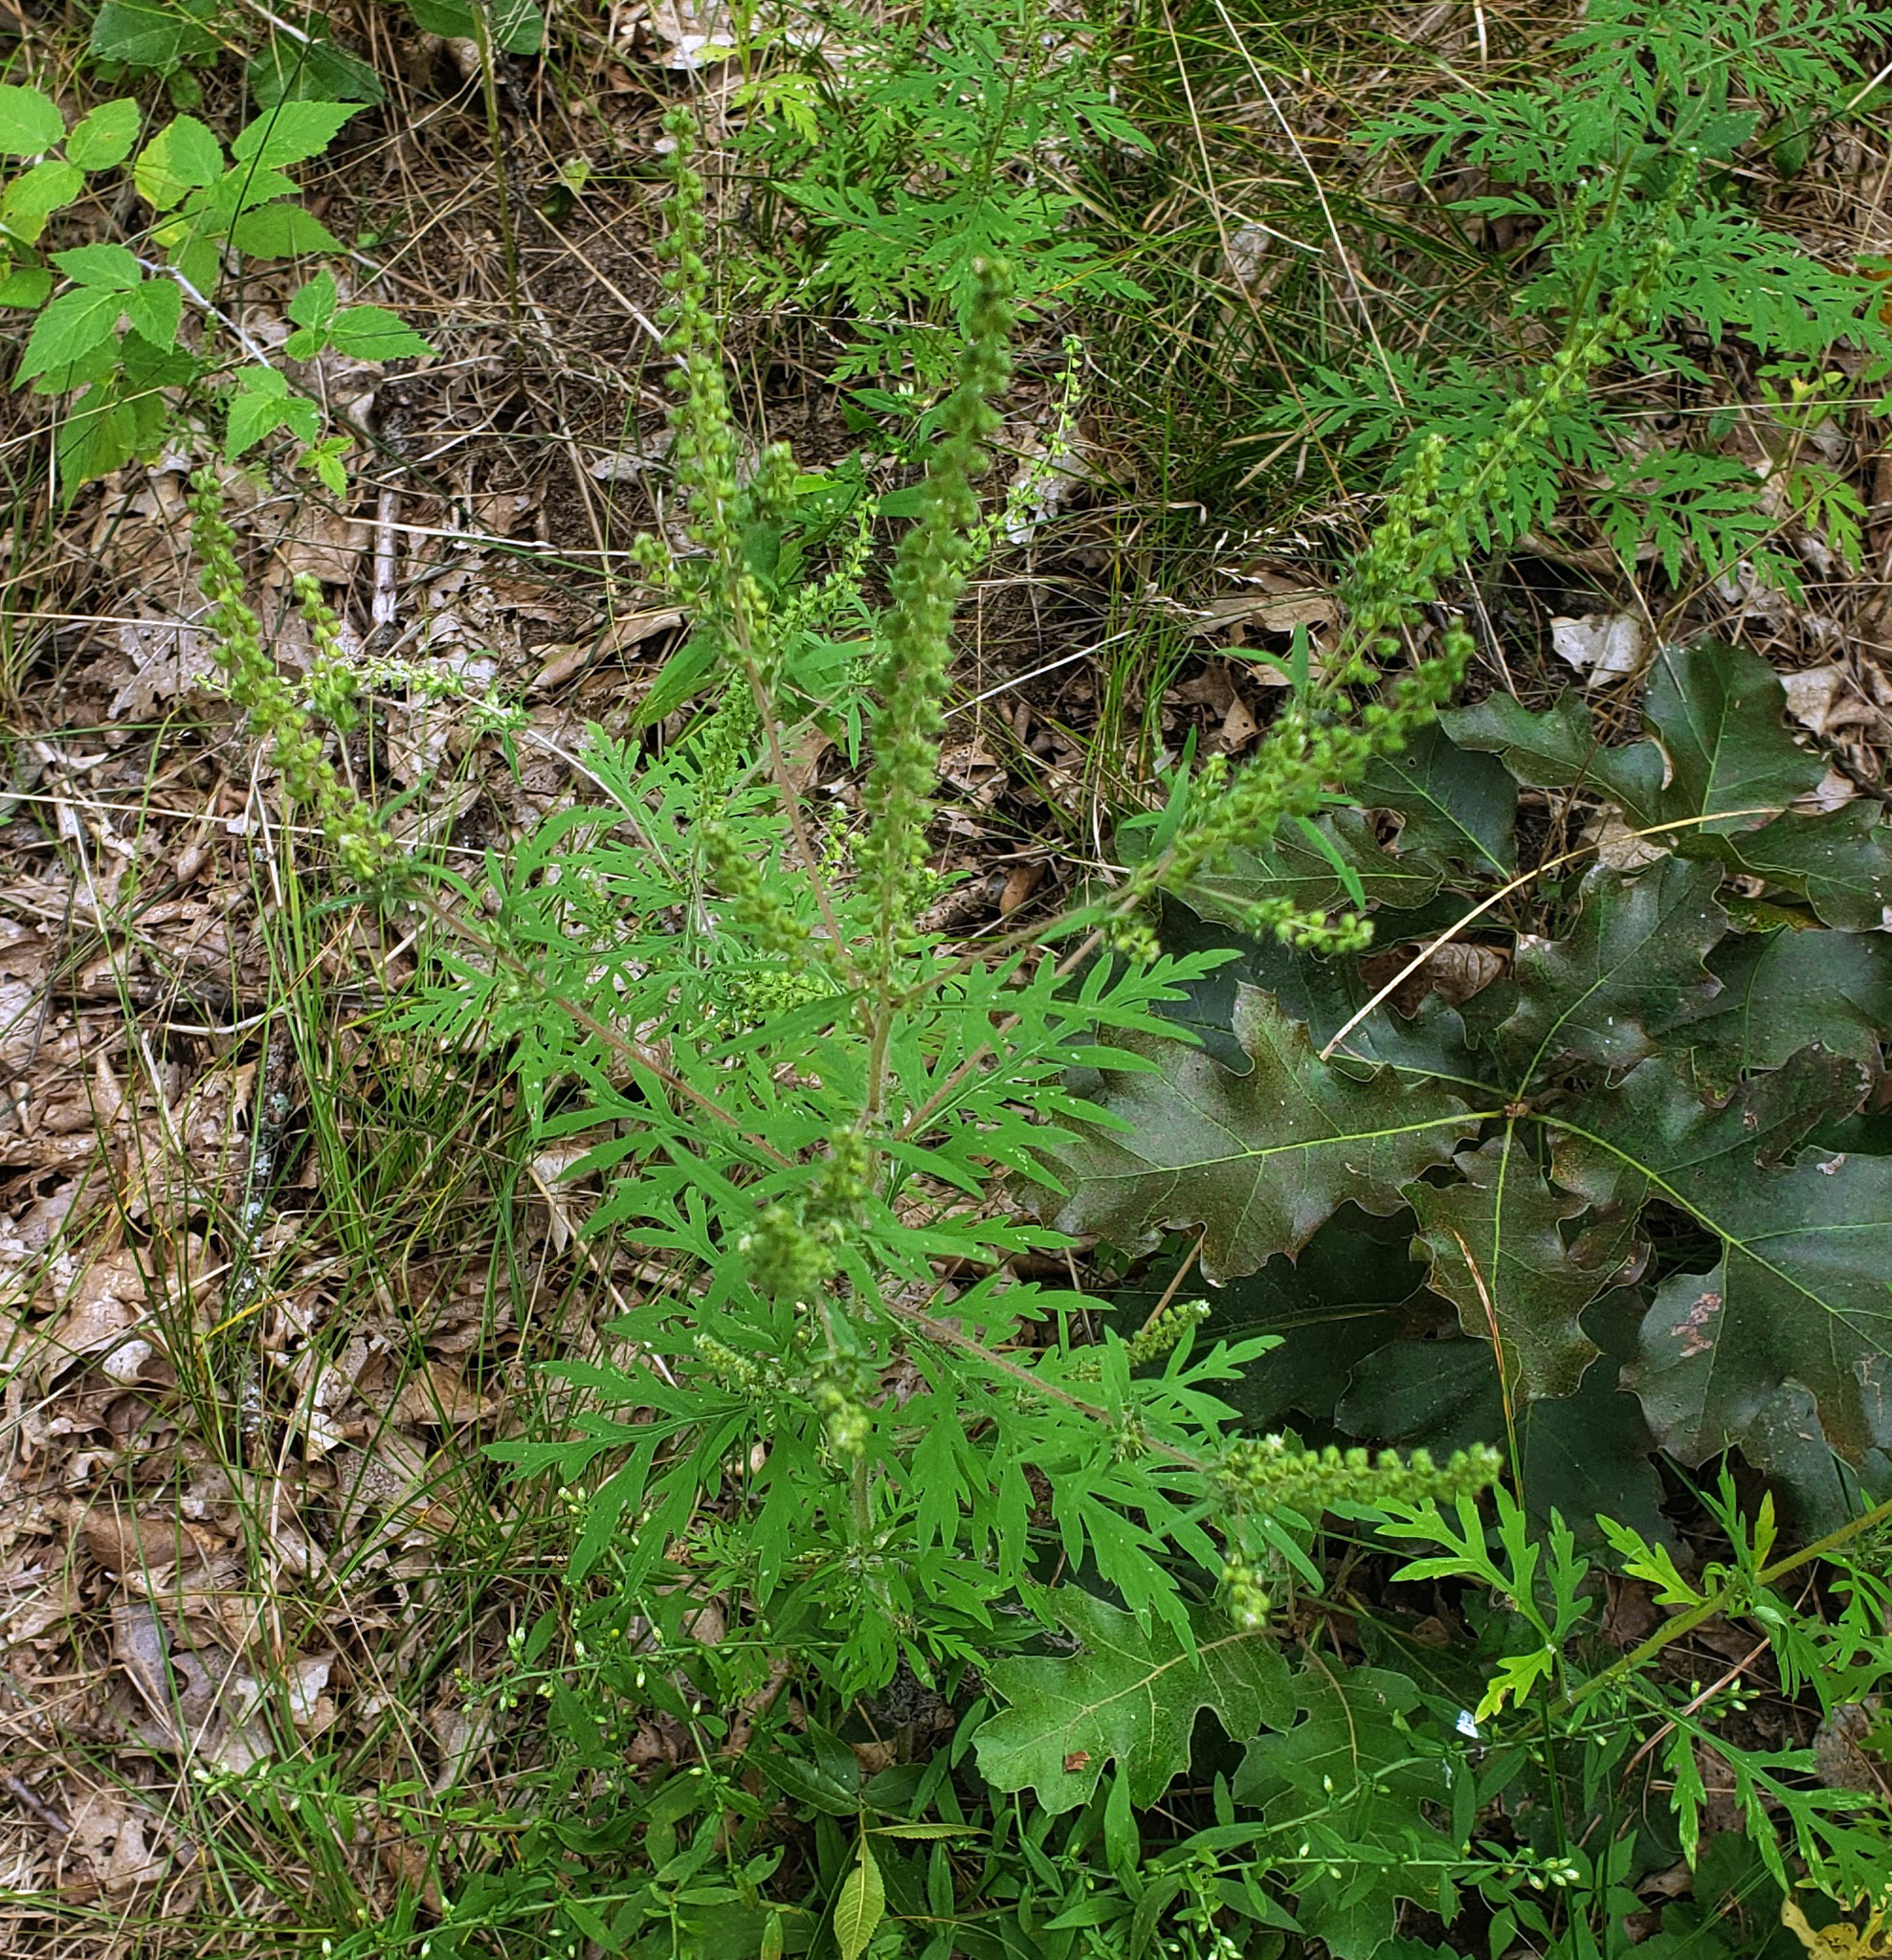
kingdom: Plantae
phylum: Tracheophyta
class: Magnoliopsida
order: Asterales
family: Asteraceae
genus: Ambrosia
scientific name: Ambrosia artemisiifolia
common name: Annual ragweed
